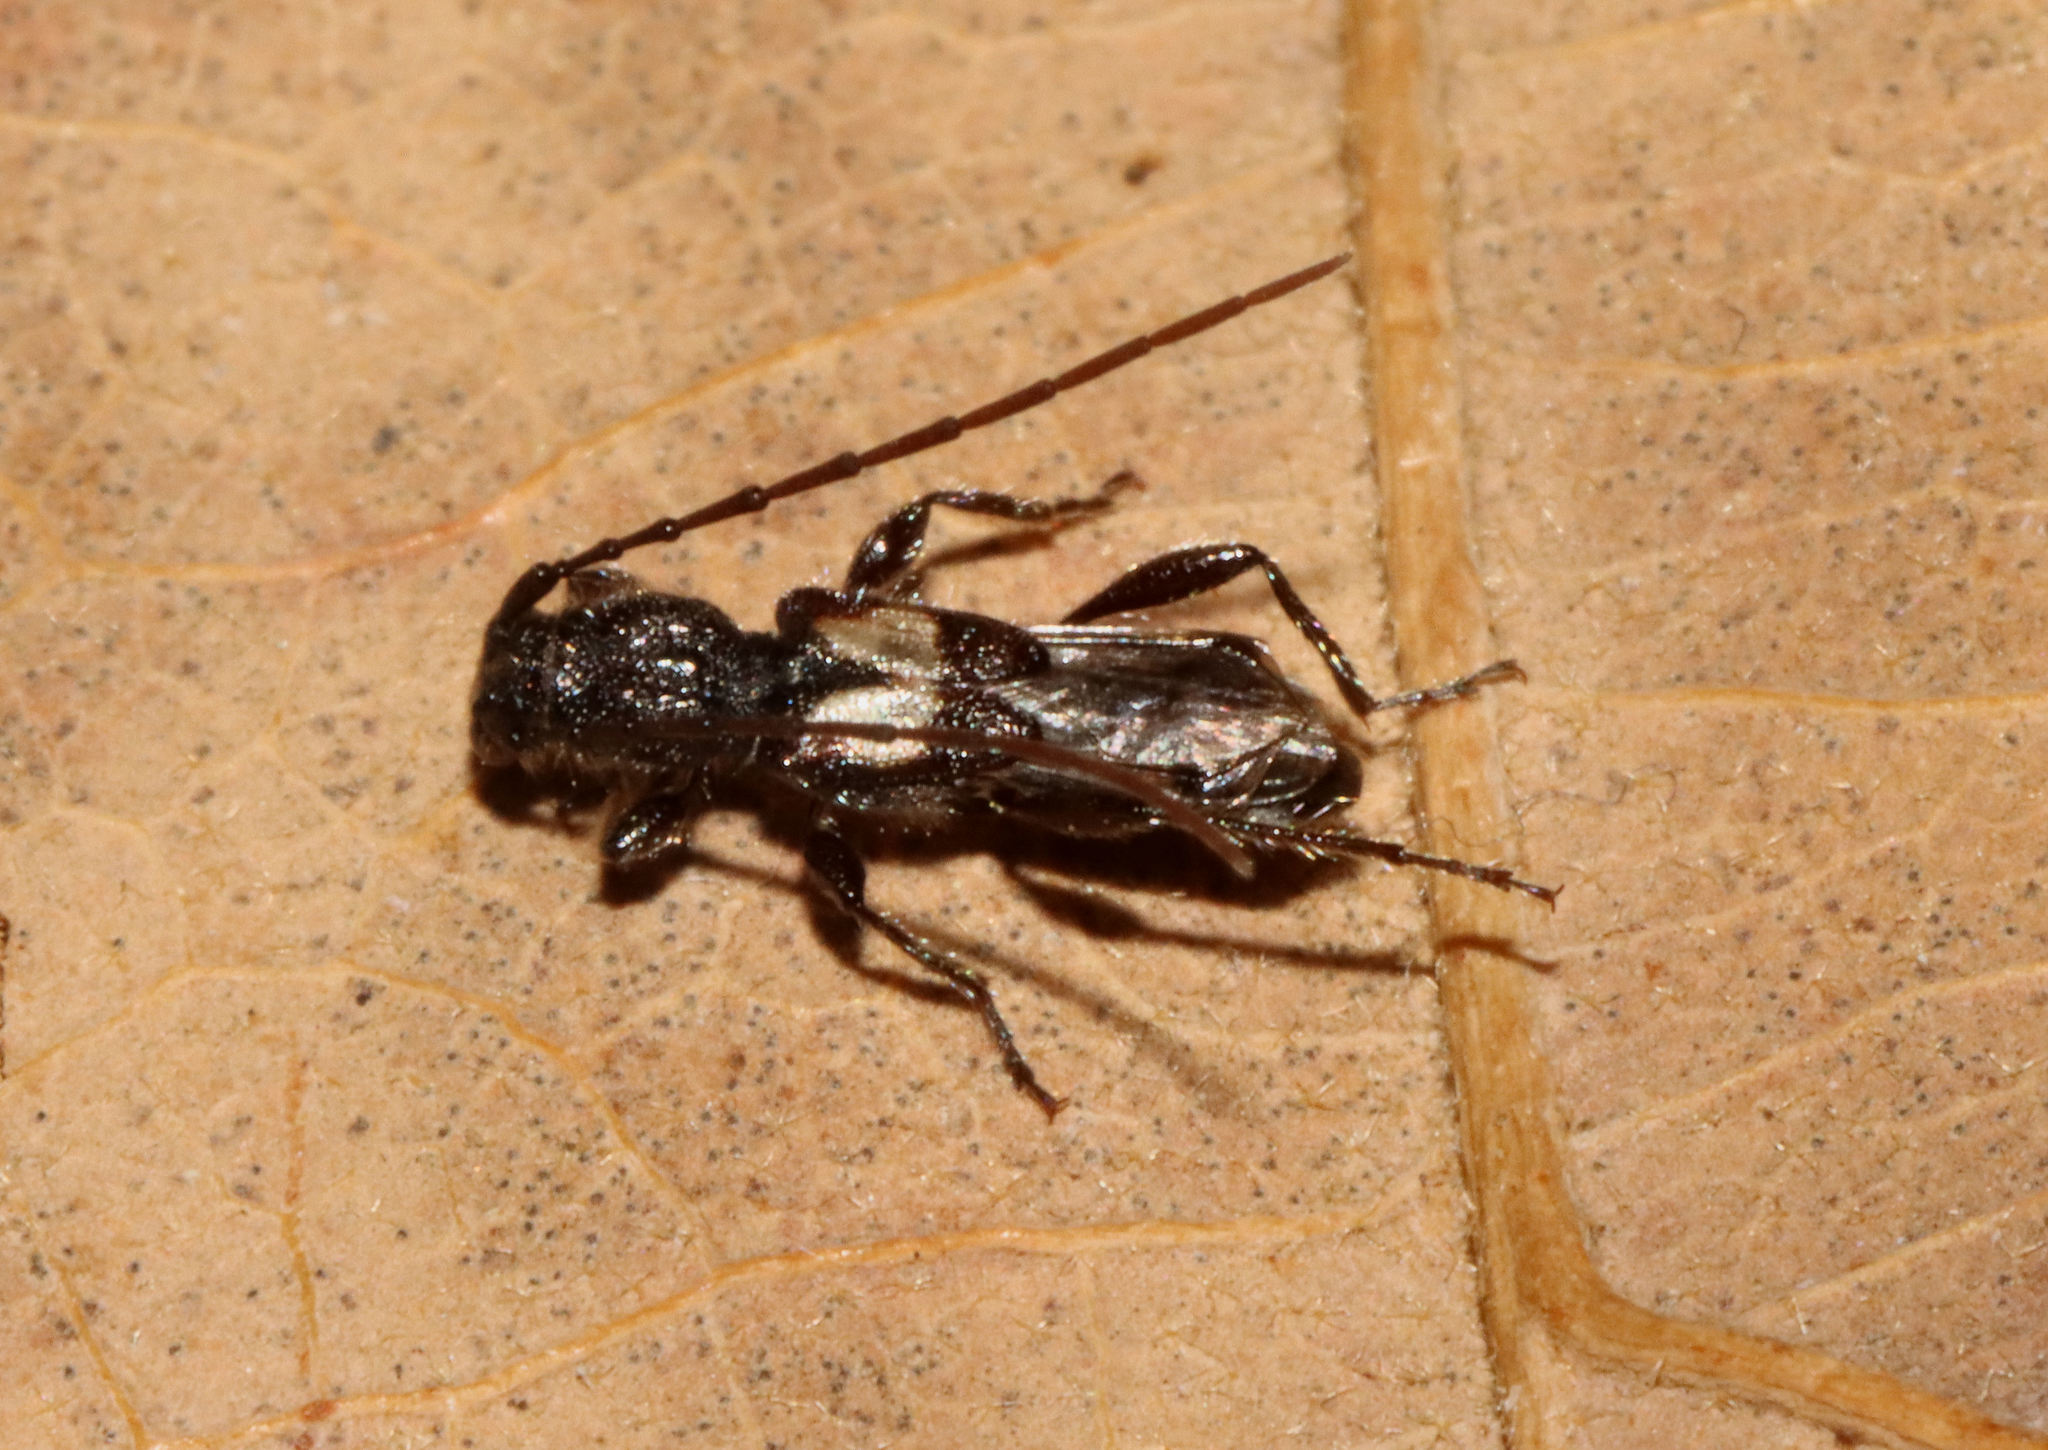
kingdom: Animalia
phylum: Arthropoda
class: Insecta
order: Coleoptera
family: Cerambycidae
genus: Molorchus
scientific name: Molorchus bimaculatus
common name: Bimaculate longhorn beetle
